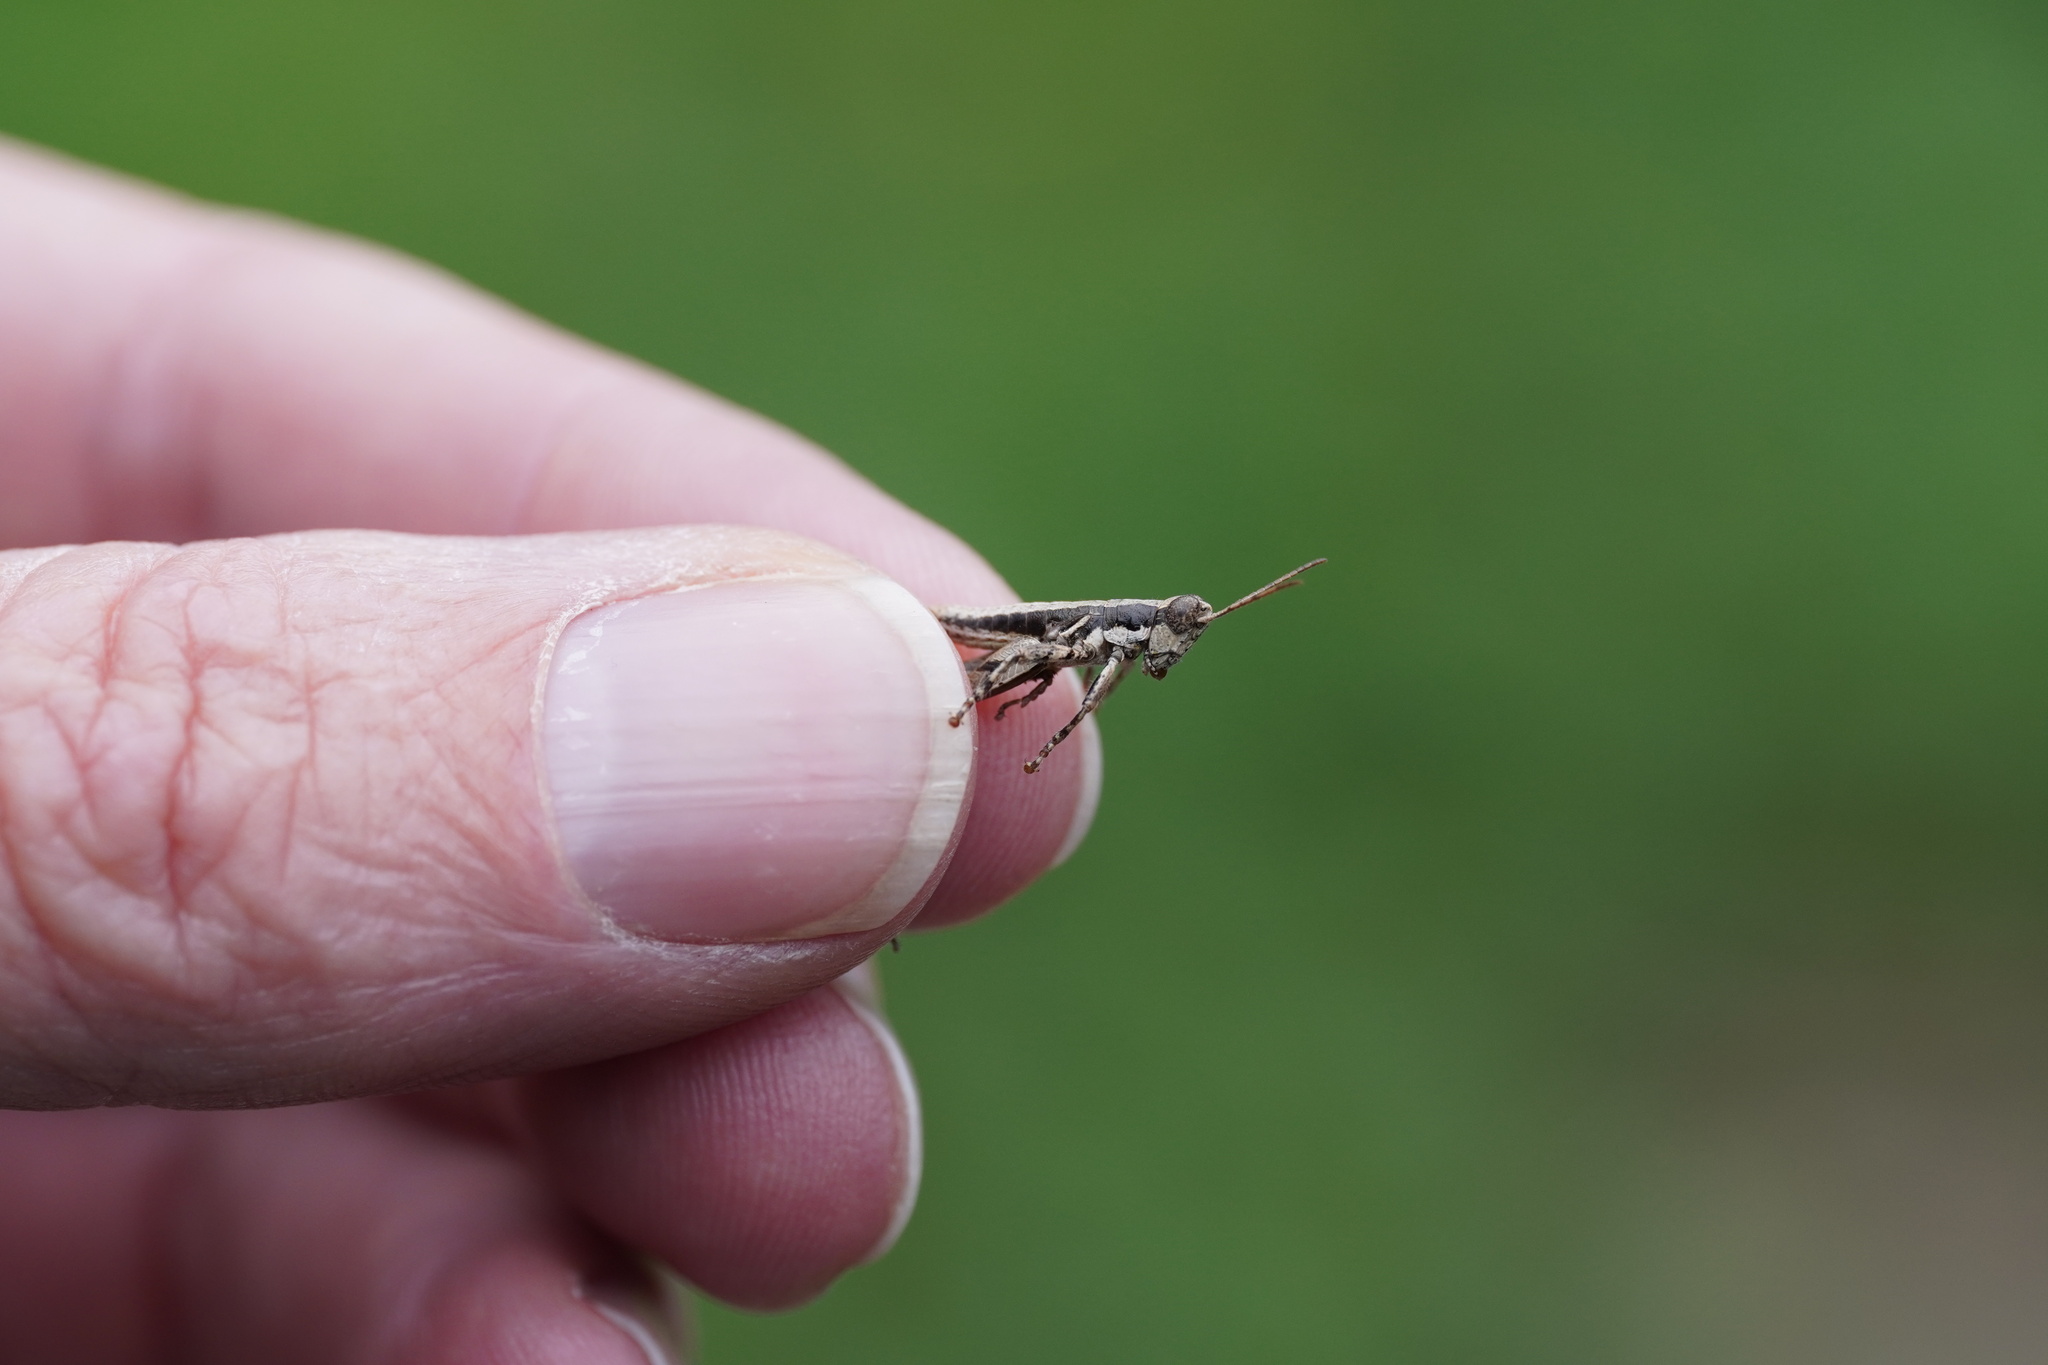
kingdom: Animalia
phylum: Arthropoda
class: Insecta
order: Orthoptera
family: Acrididae
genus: Arminda
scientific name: Arminda latifrons
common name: Gomera rock grasshopper
